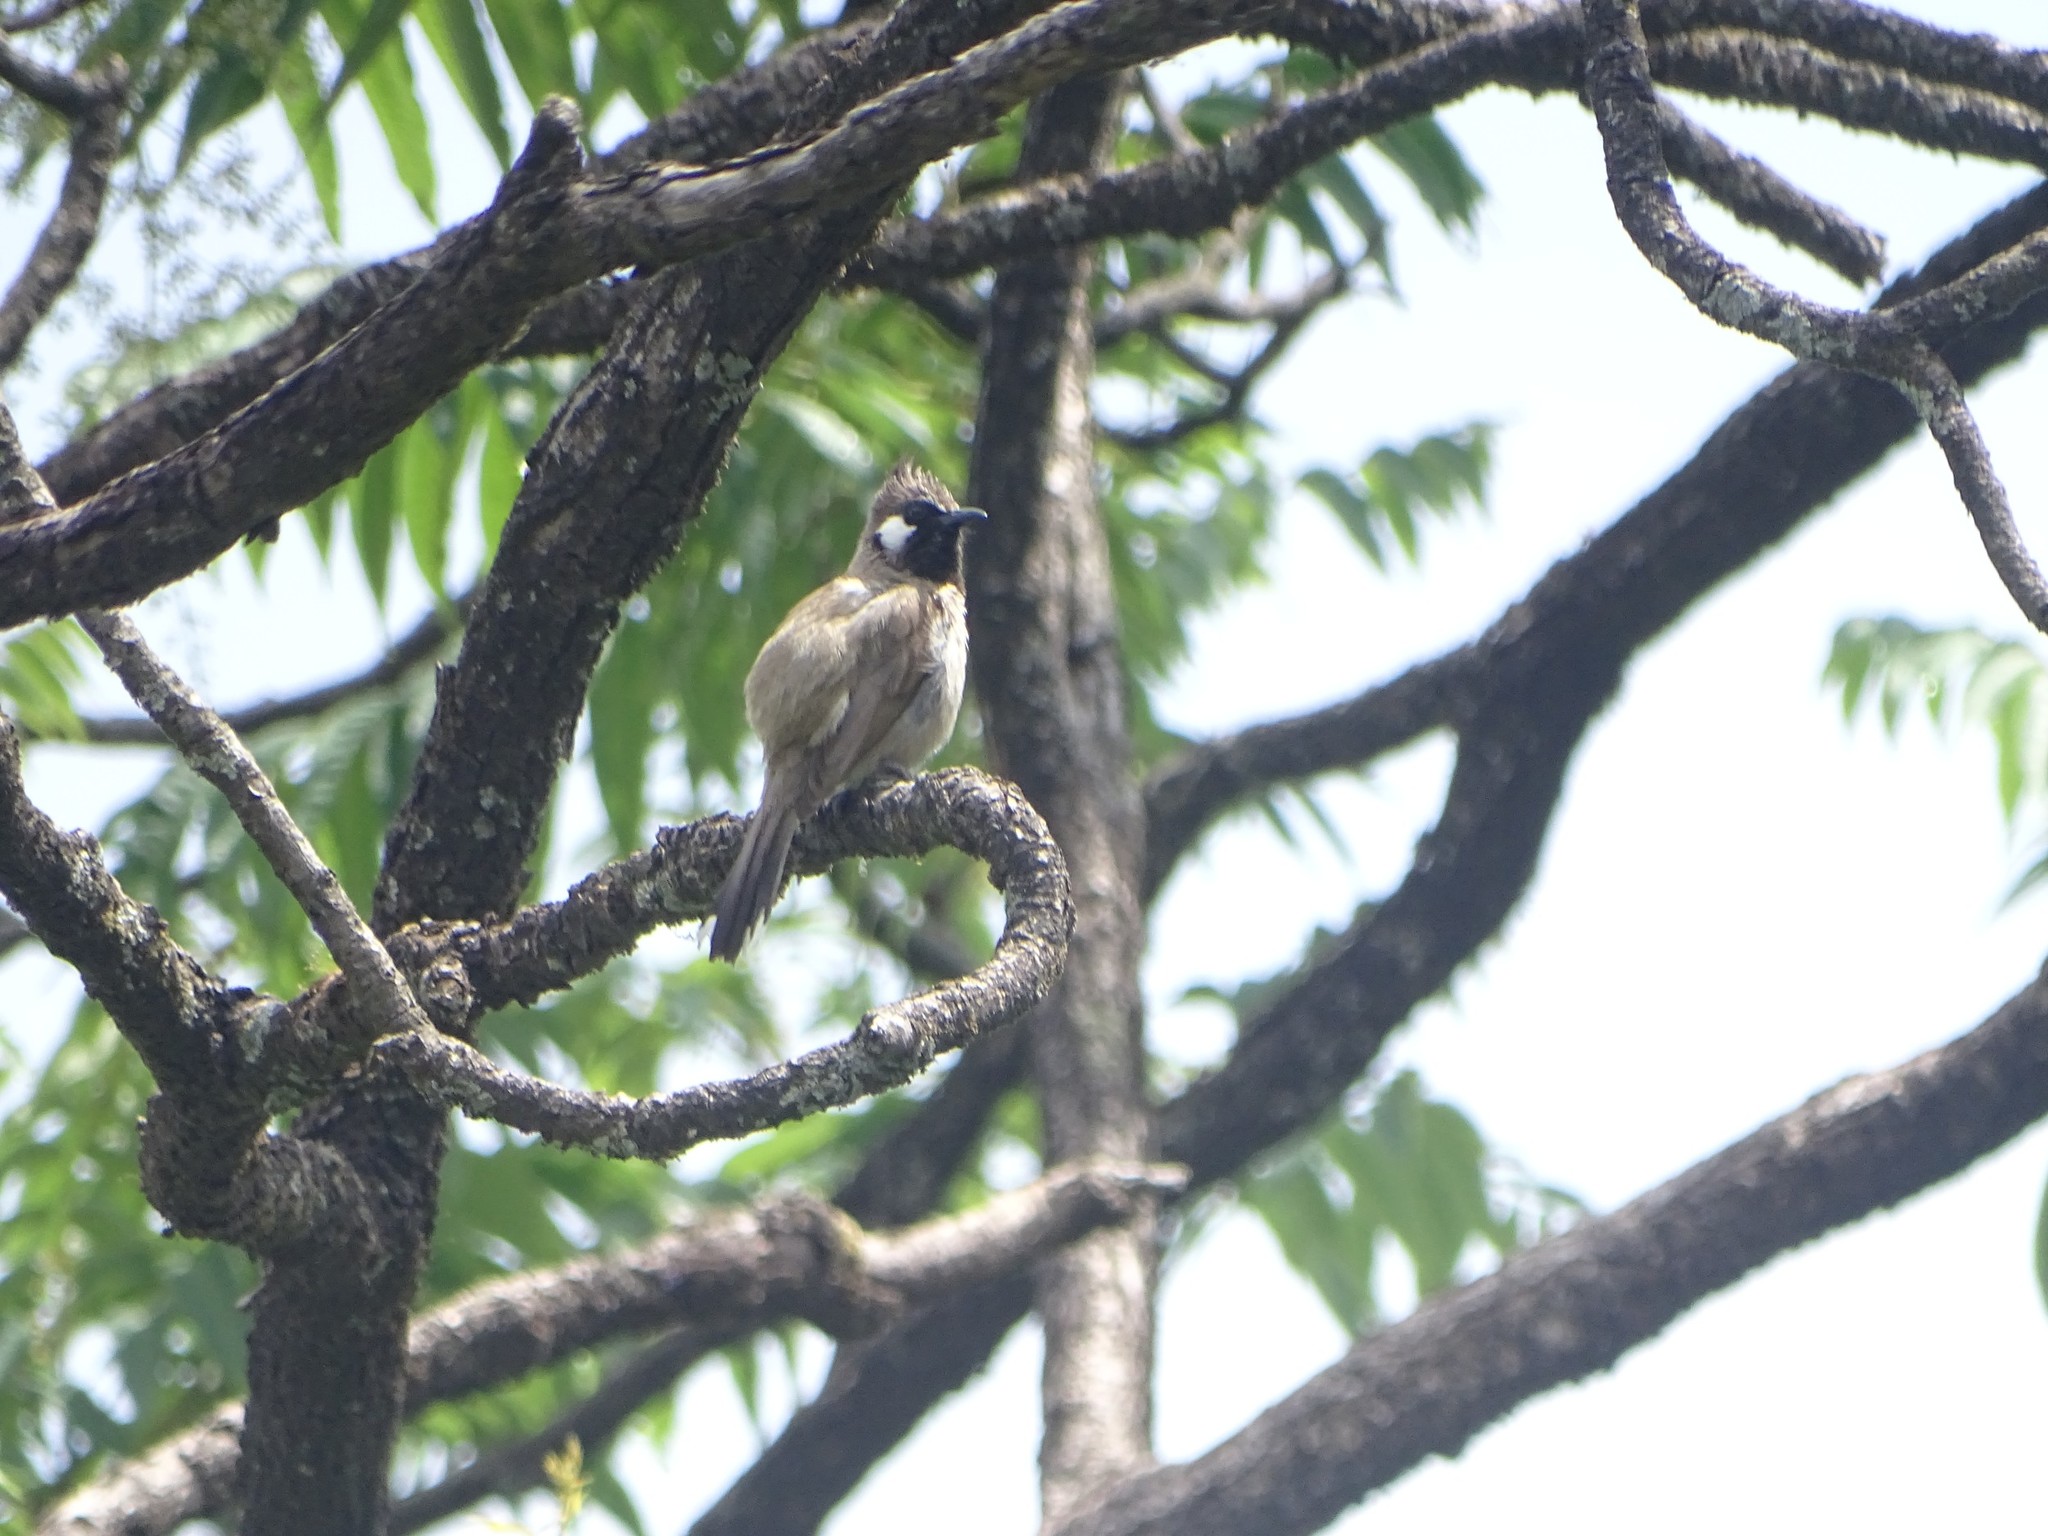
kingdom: Animalia
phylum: Chordata
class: Aves
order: Passeriformes
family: Pycnonotidae
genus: Pycnonotus
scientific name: Pycnonotus leucogenys
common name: Himalayan bulbul
